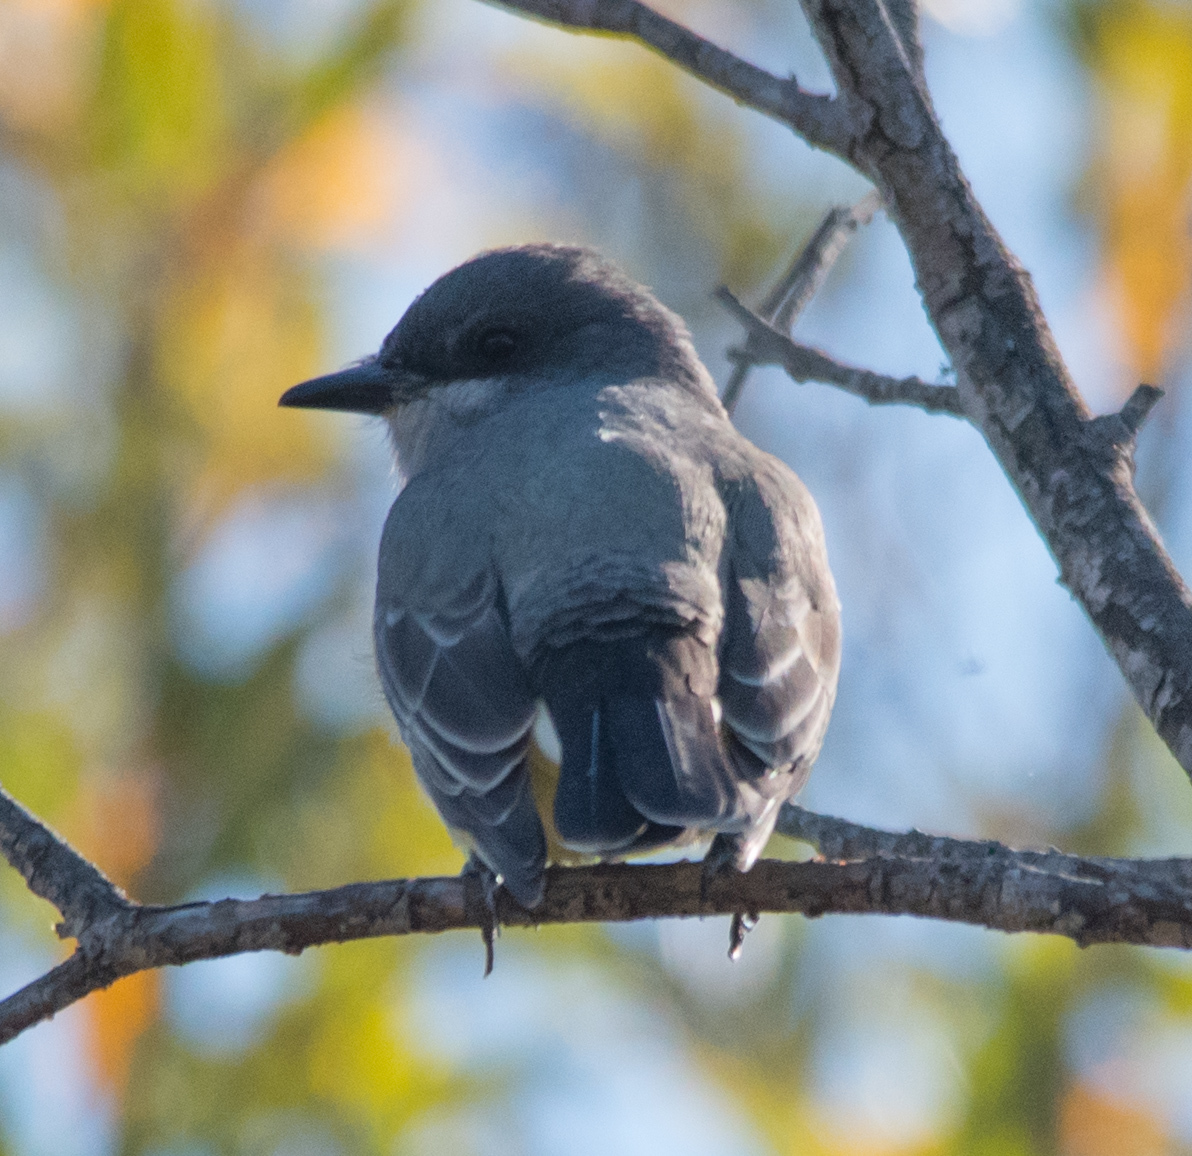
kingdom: Animalia
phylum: Chordata
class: Aves
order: Passeriformes
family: Tyrannidae
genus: Tyrannus
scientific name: Tyrannus vociferans
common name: Cassin's kingbird
